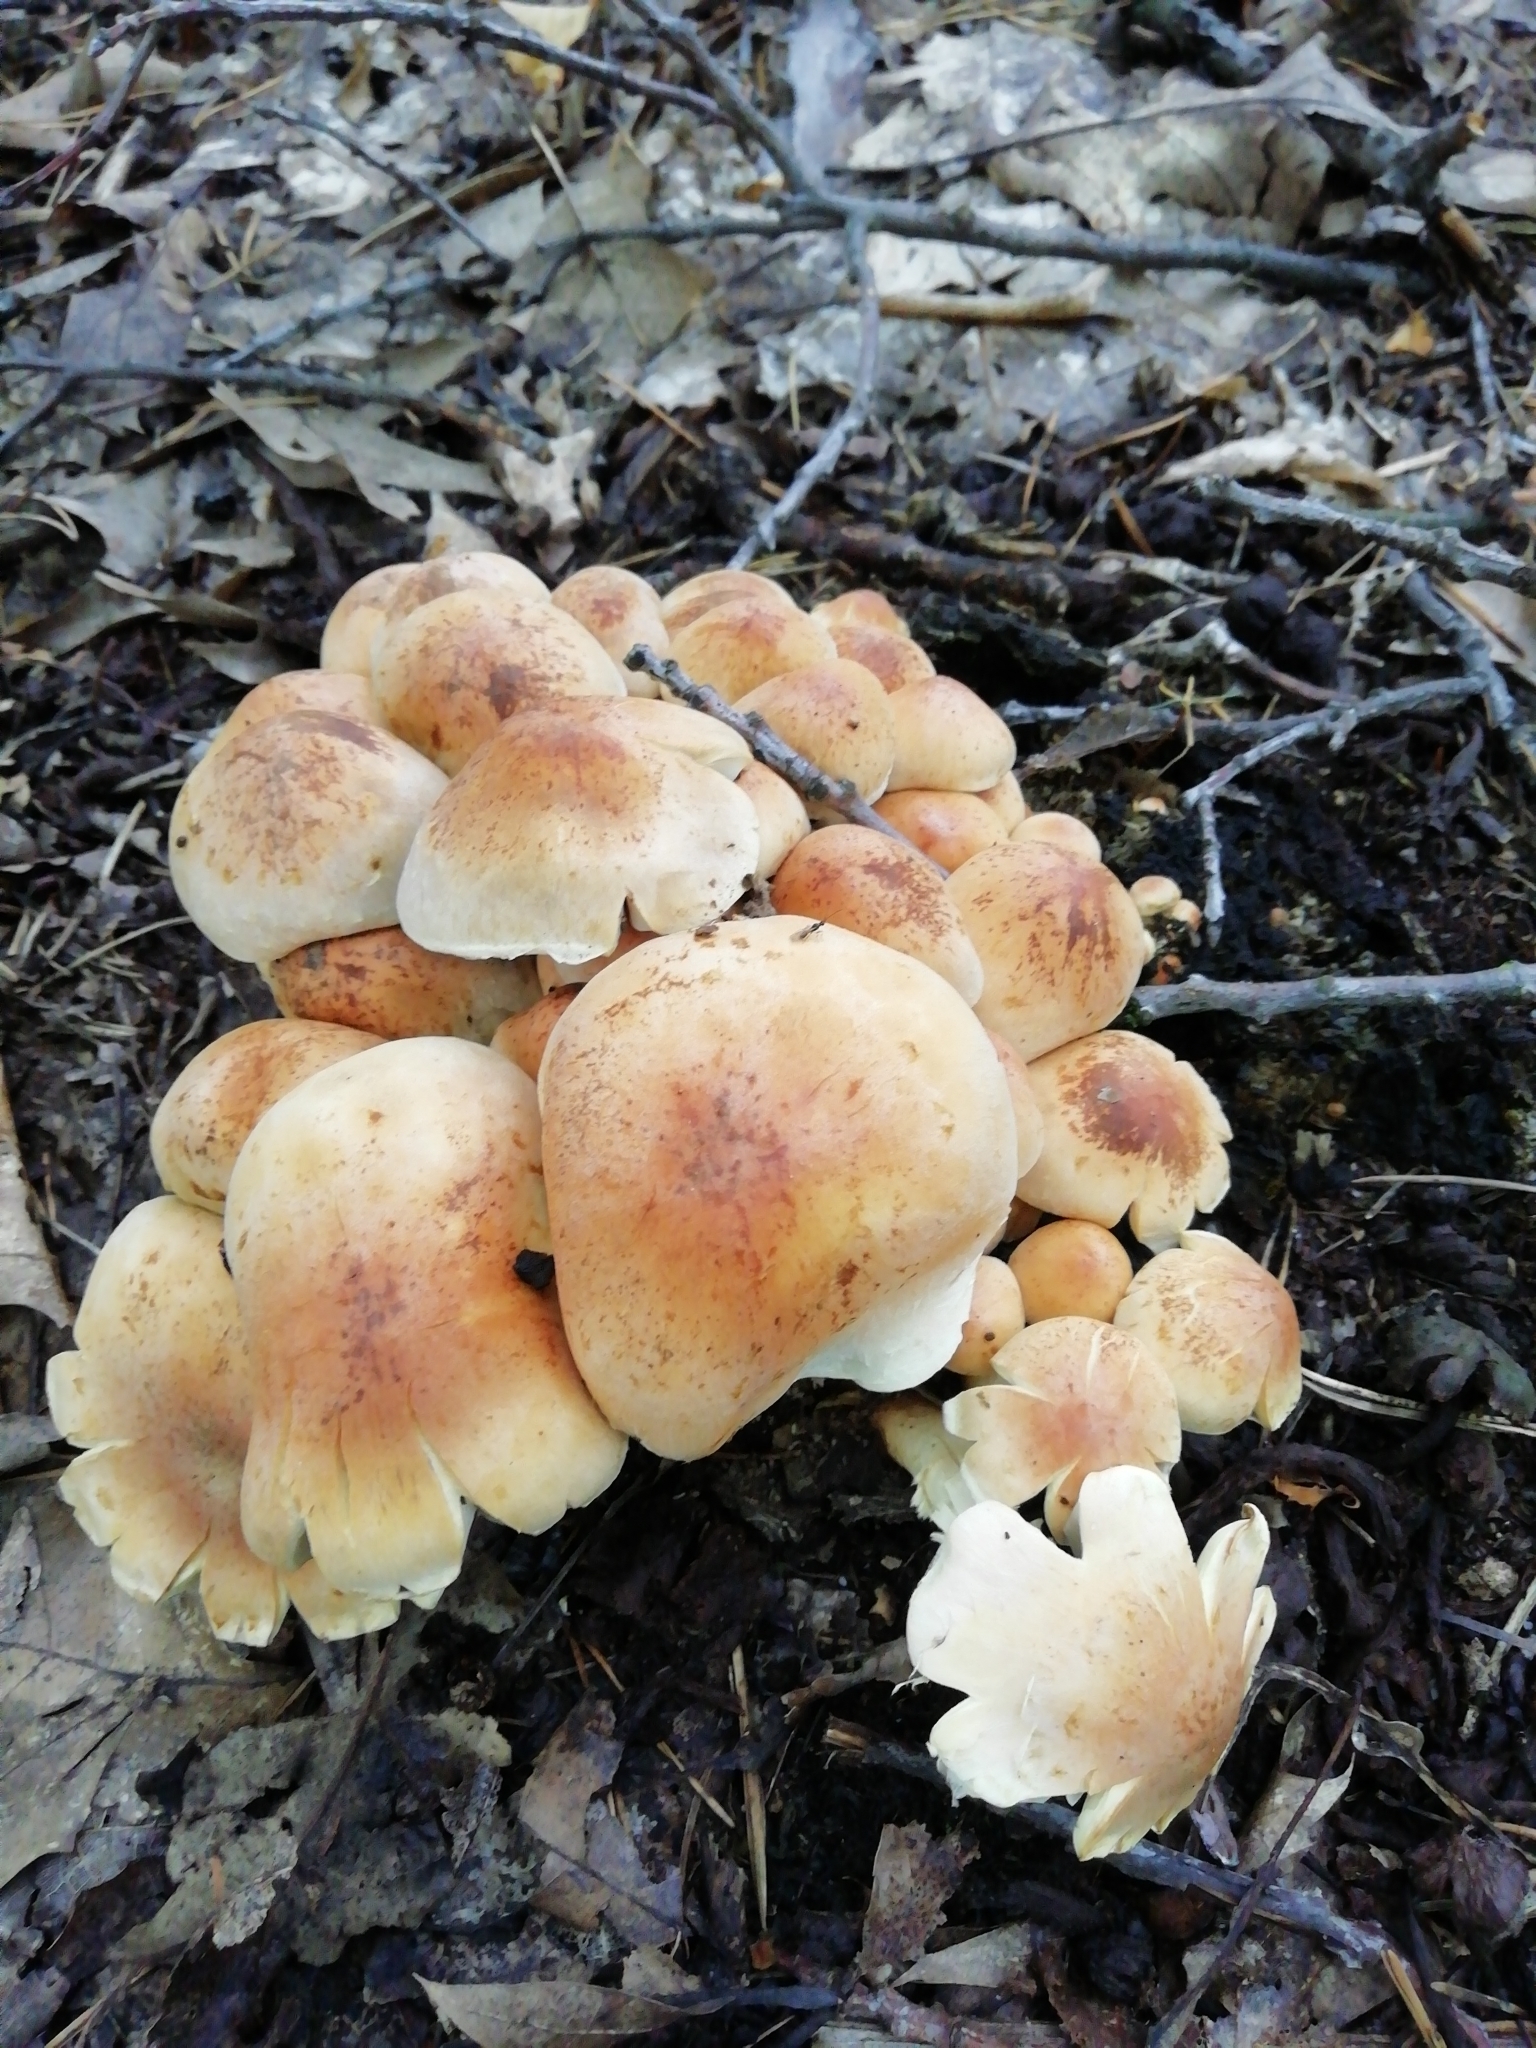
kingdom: Fungi
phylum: Basidiomycota
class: Agaricomycetes
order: Agaricales
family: Strophariaceae
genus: Hypholoma
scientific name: Hypholoma fasciculare
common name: Sulphur tuft
